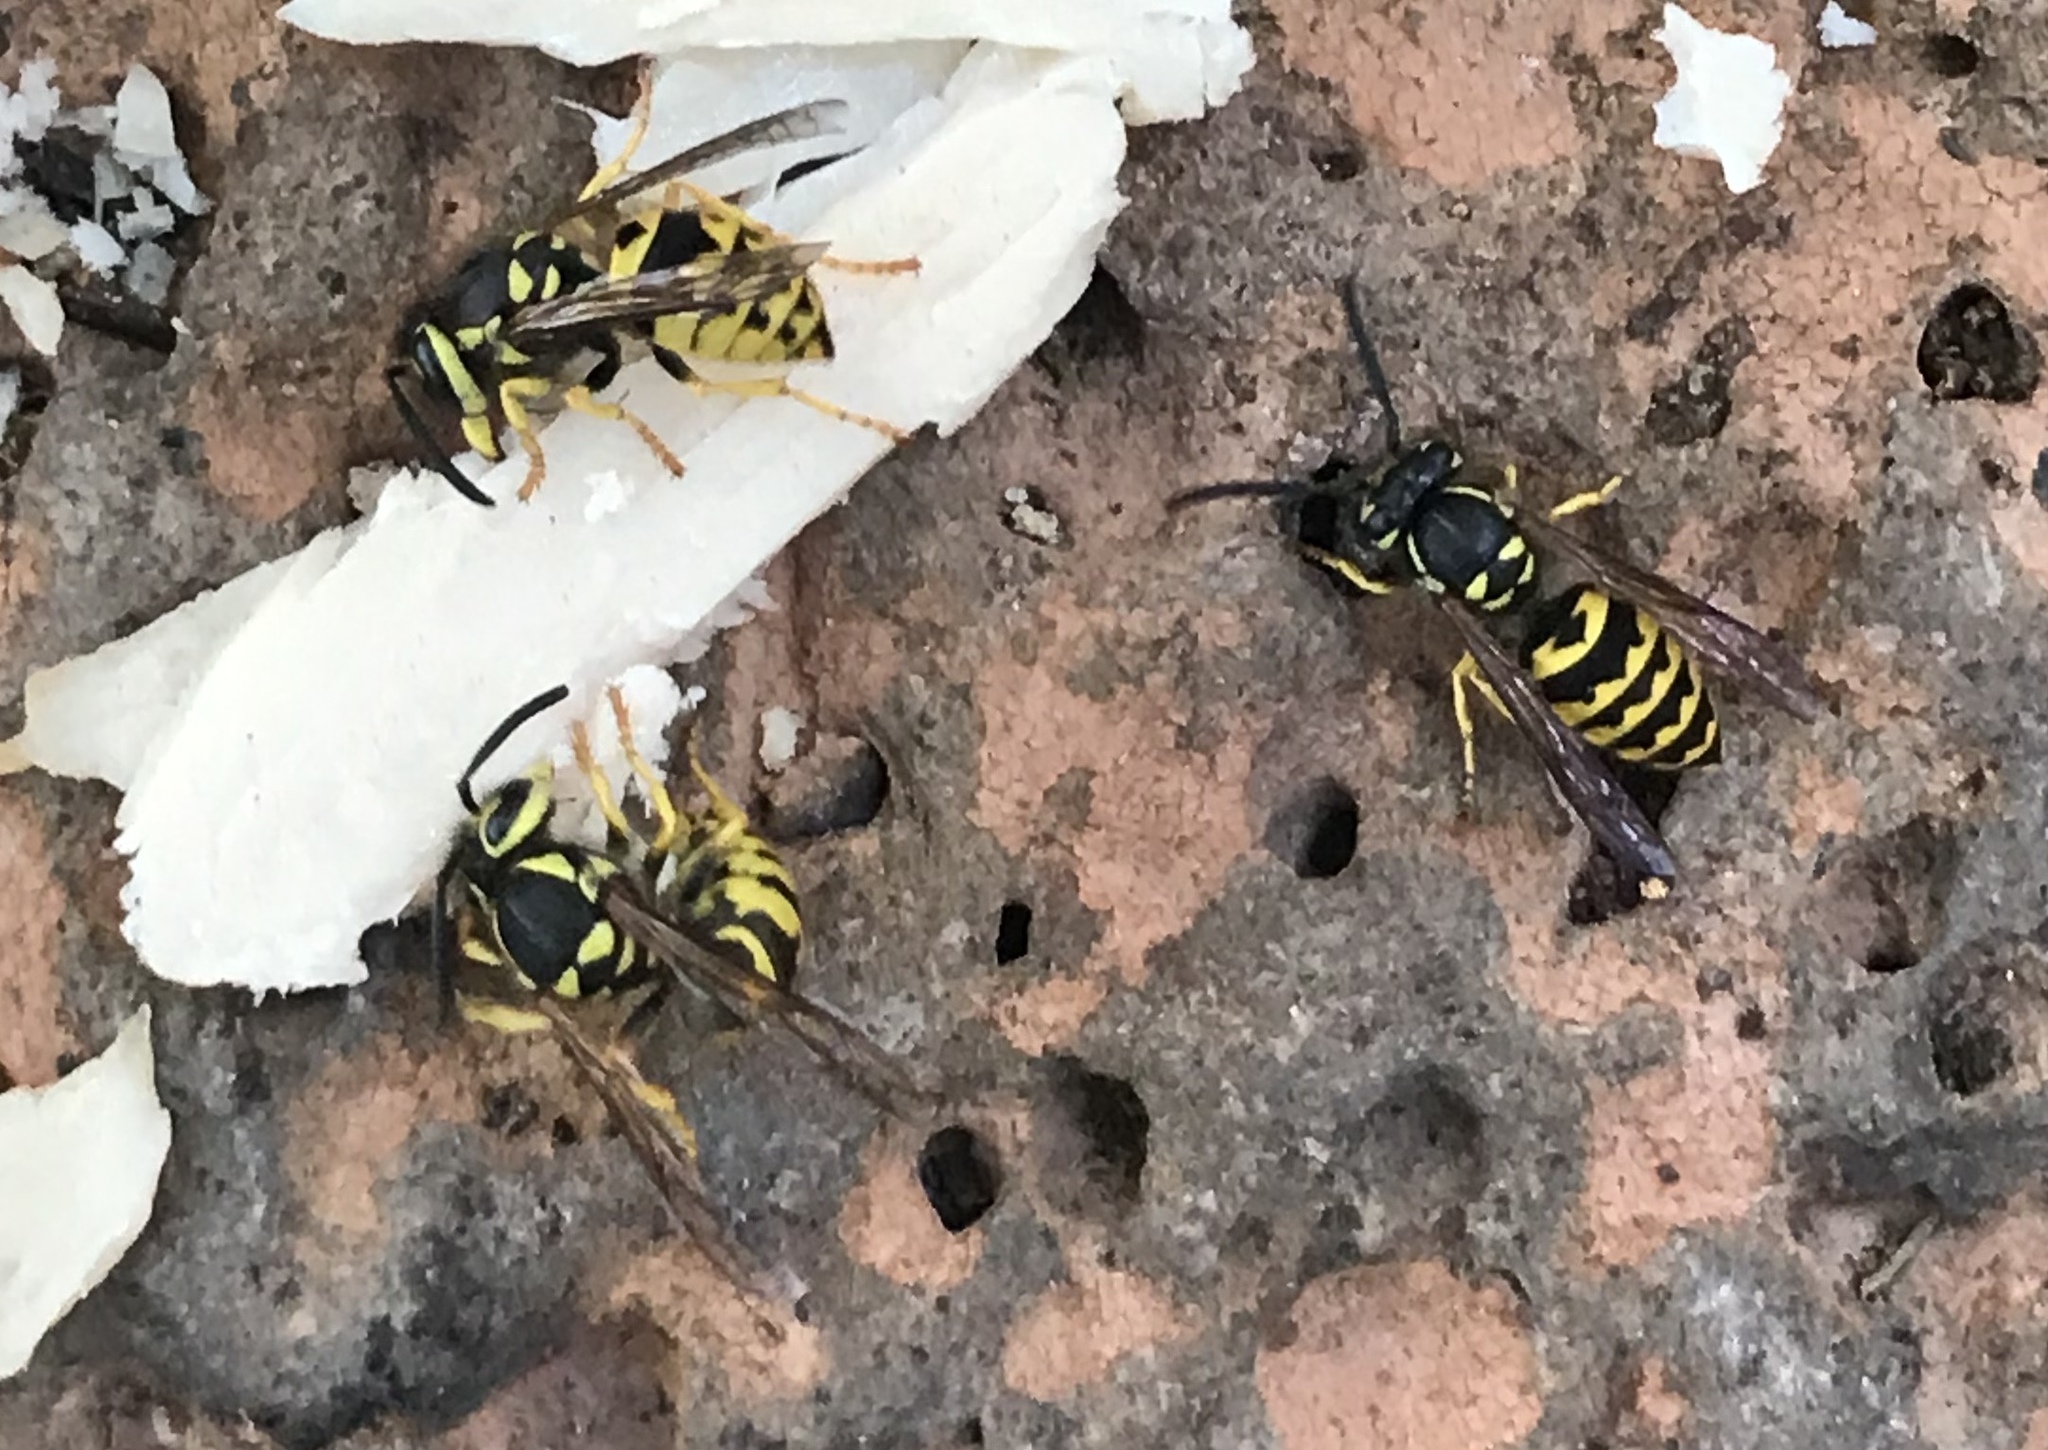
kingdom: Animalia
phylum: Arthropoda
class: Insecta
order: Hymenoptera
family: Vespidae
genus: Vespula
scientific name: Vespula pensylvanica
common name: Western yellowjacket
